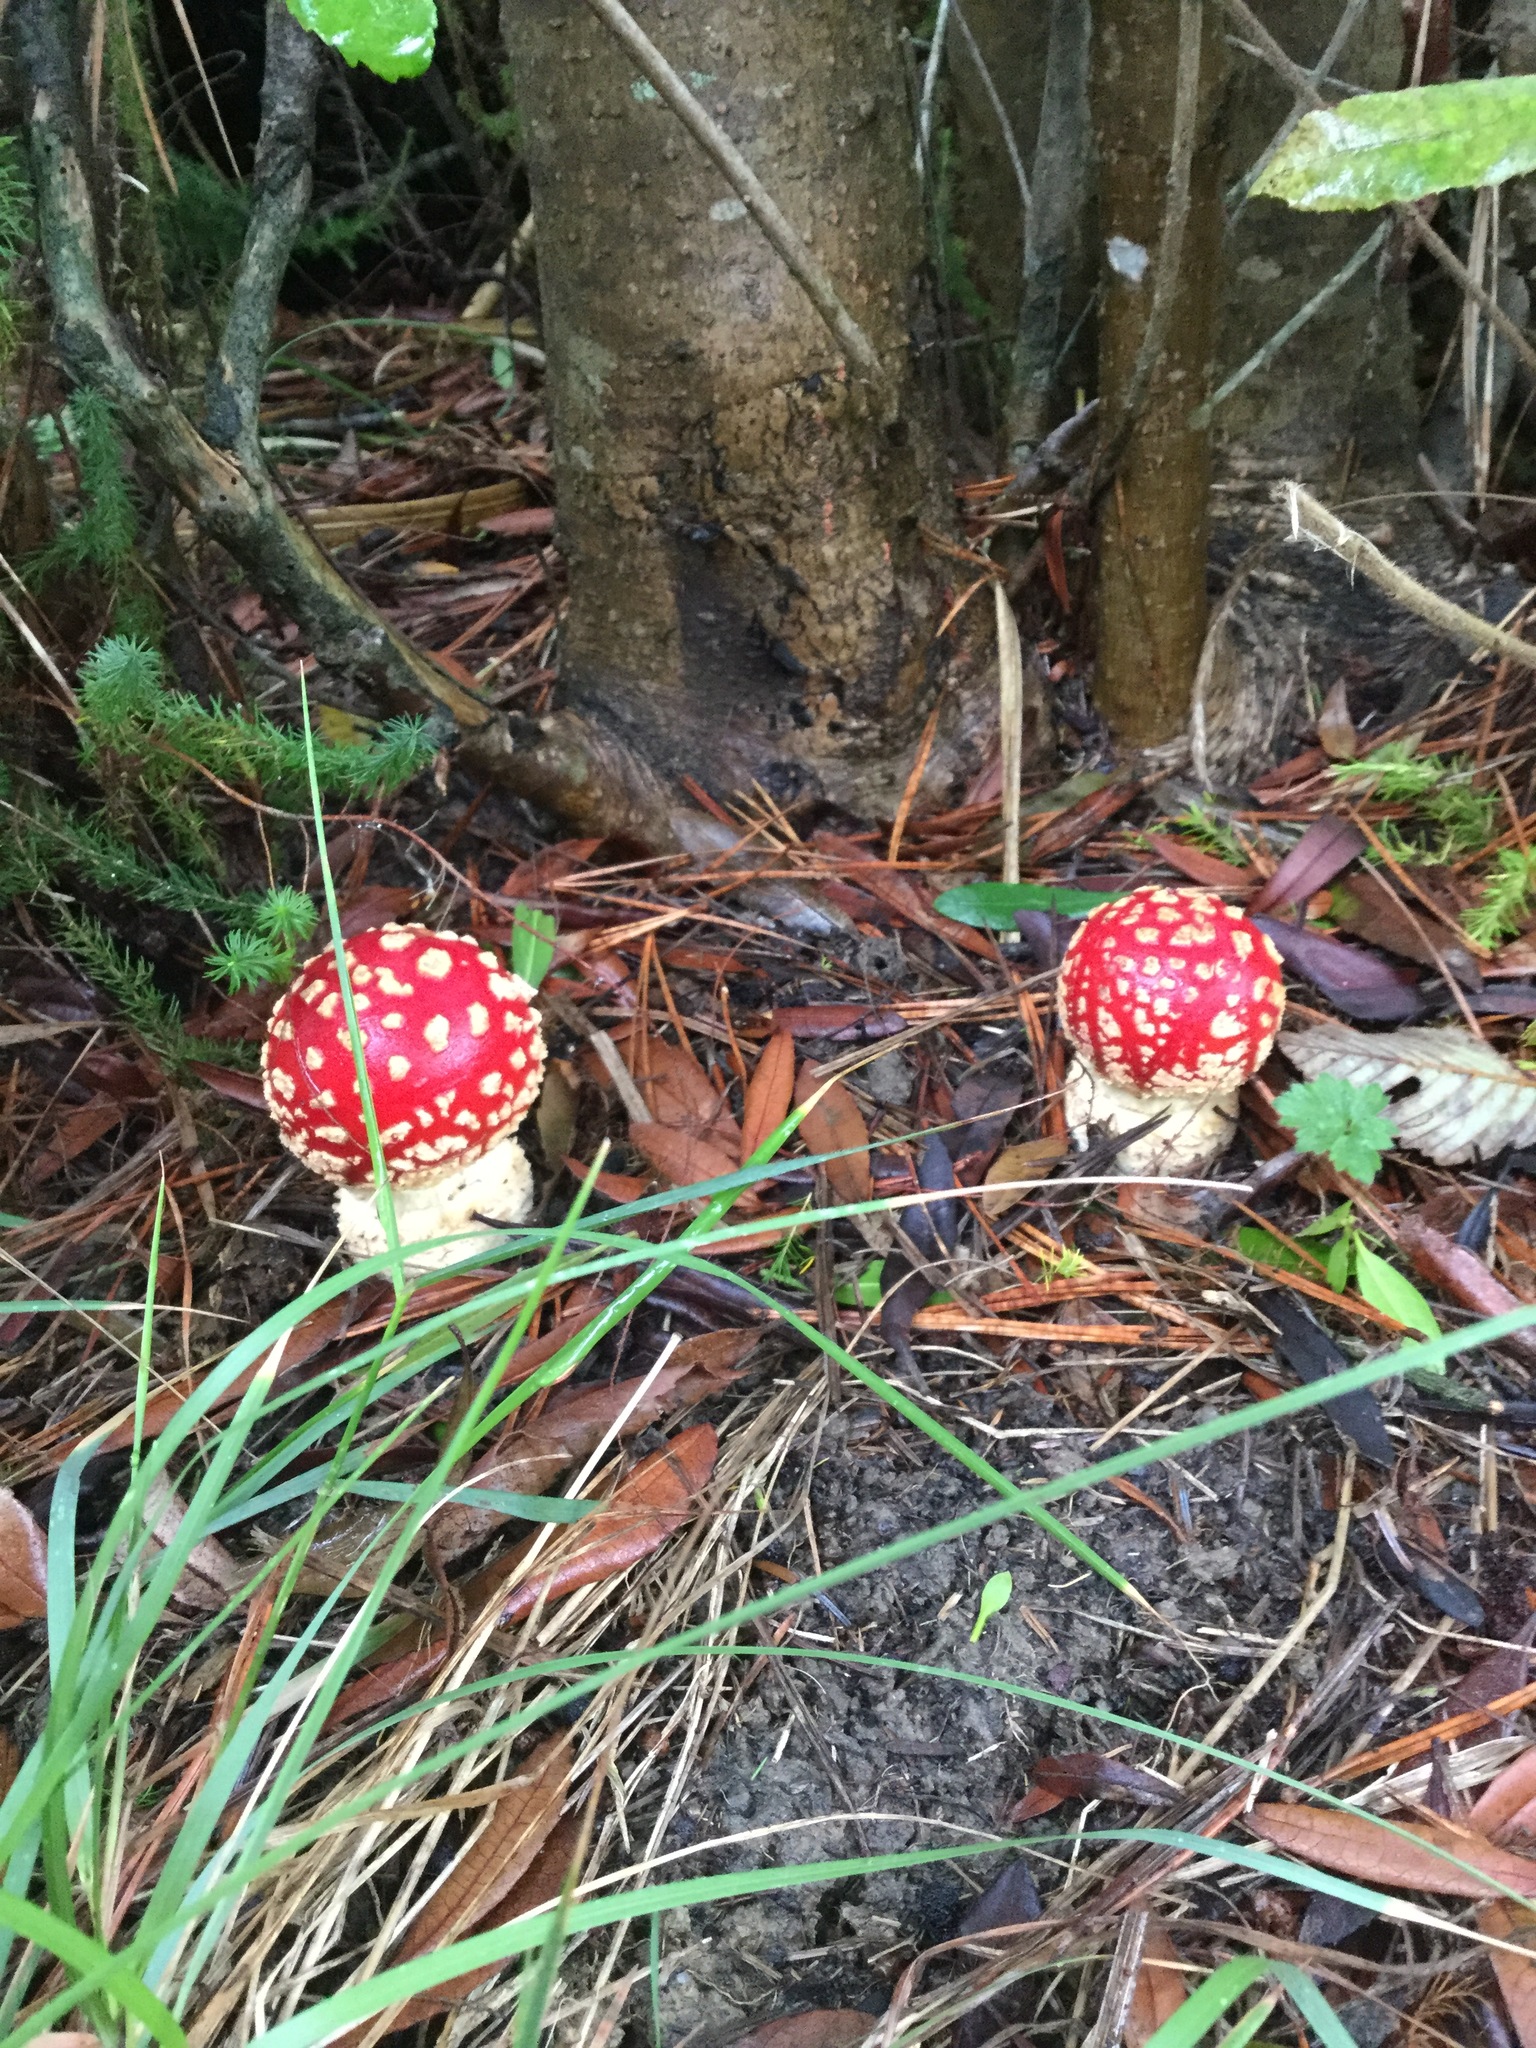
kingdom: Fungi
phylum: Basidiomycota
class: Agaricomycetes
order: Agaricales
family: Amanitaceae
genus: Amanita
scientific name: Amanita muscaria
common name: Fly agaric
